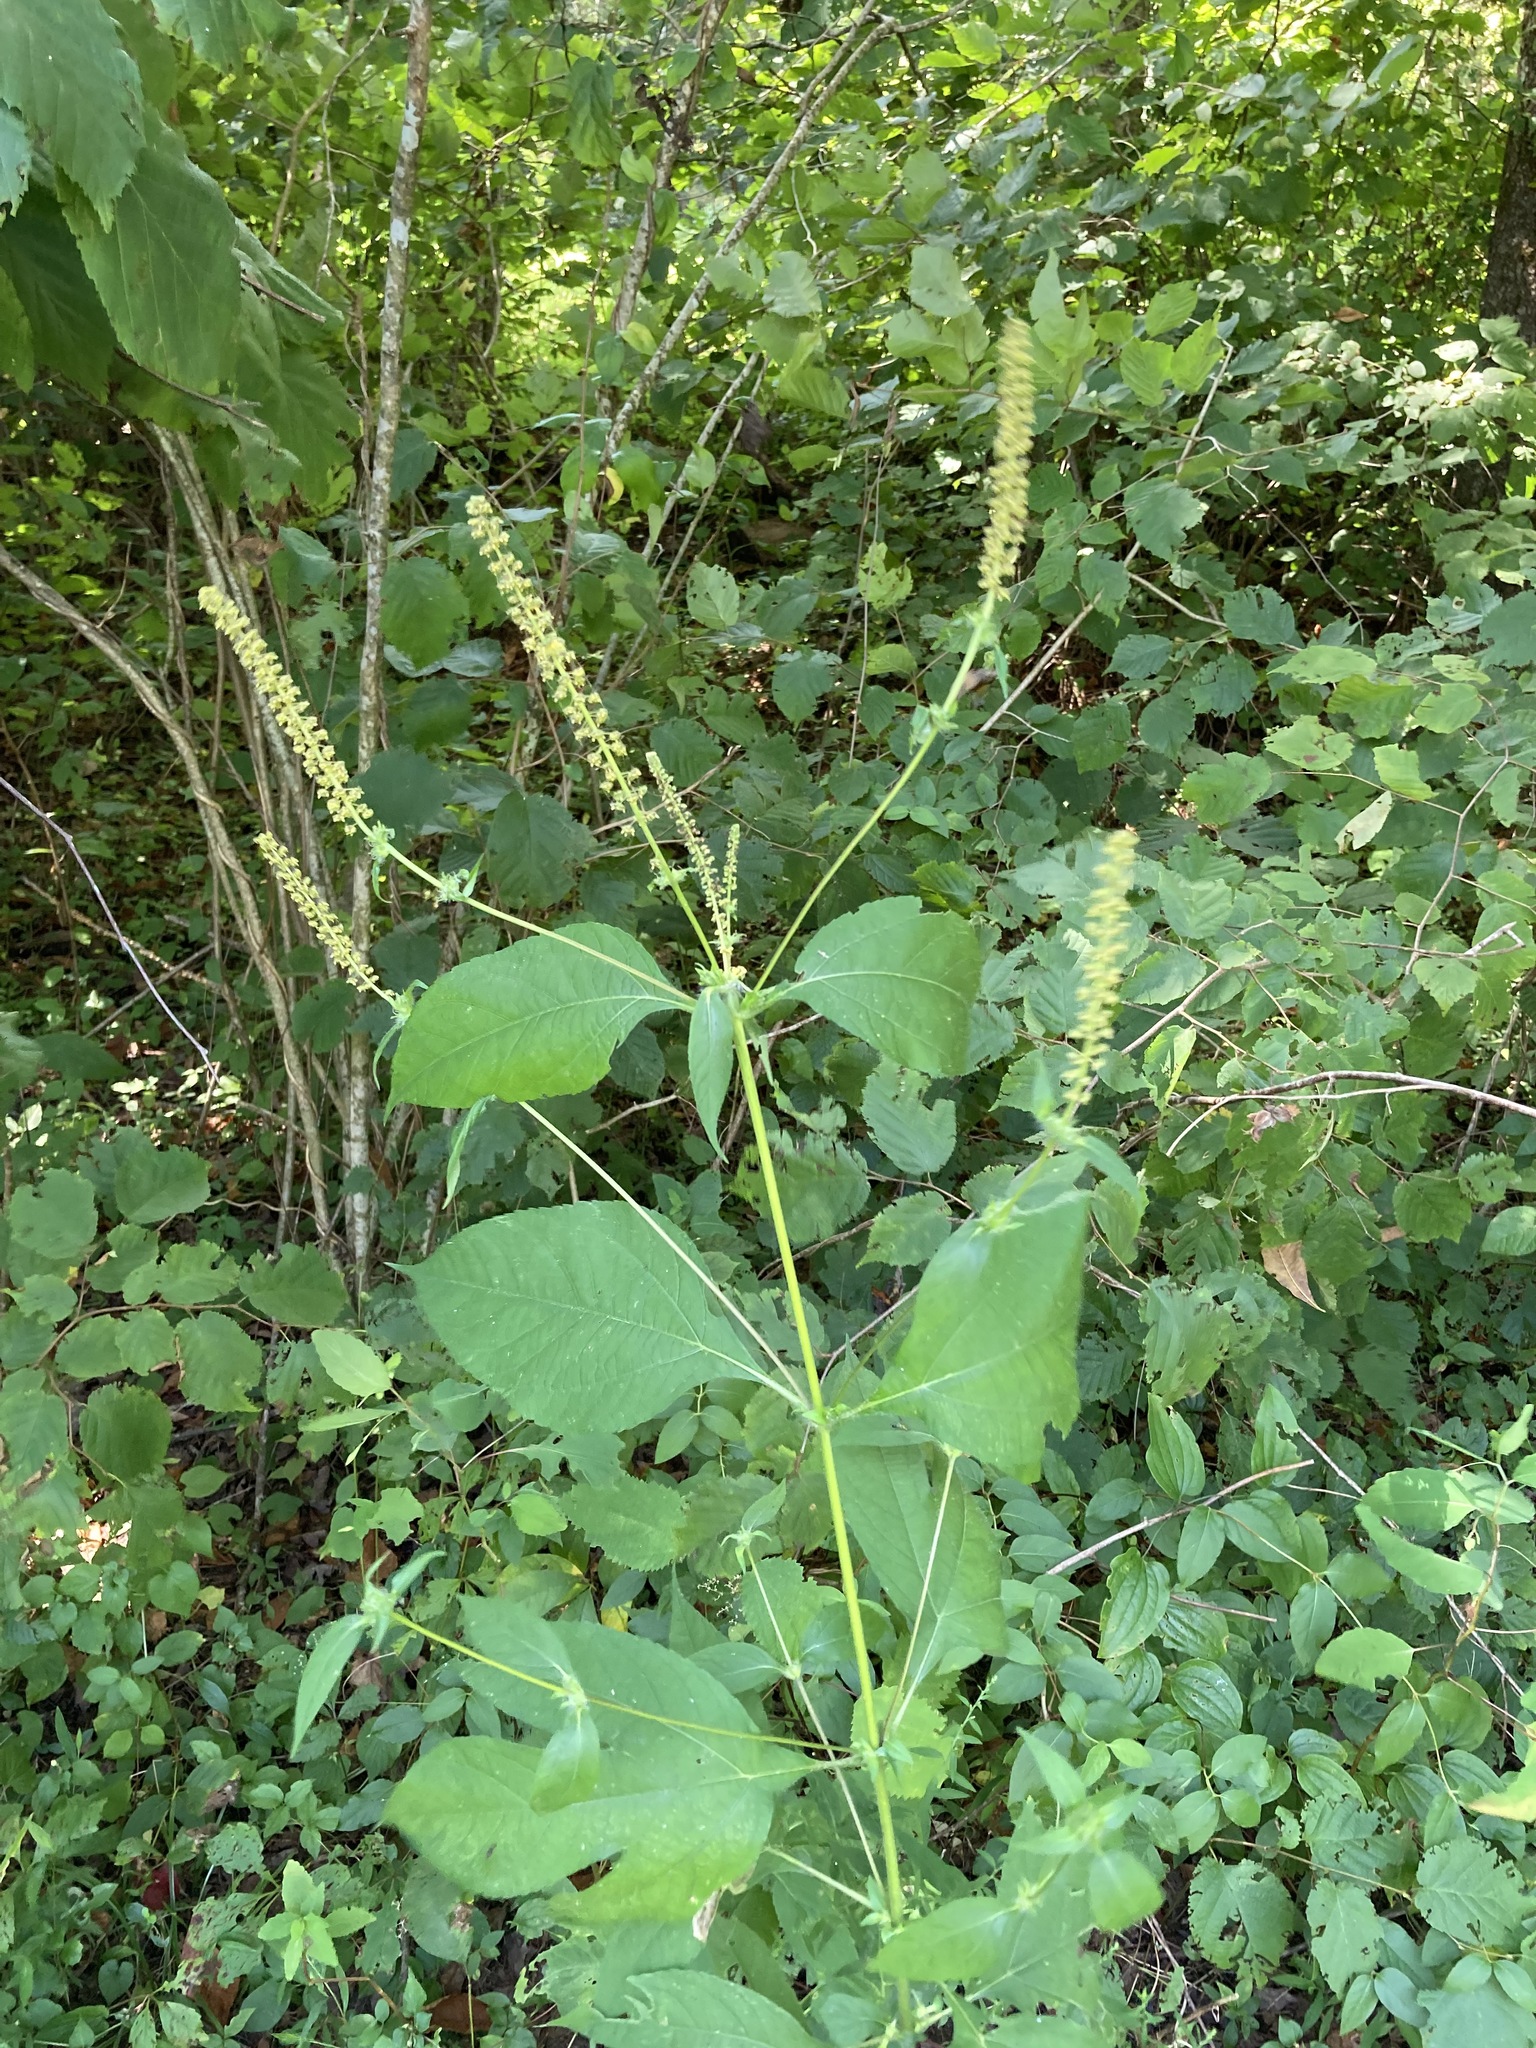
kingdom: Plantae
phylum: Tracheophyta
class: Magnoliopsida
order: Asterales
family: Asteraceae
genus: Ambrosia
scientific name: Ambrosia trifida
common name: Giant ragweed
